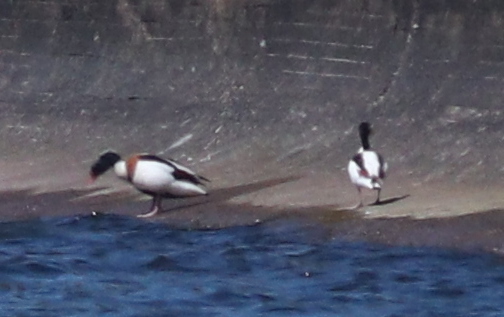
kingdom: Animalia
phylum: Chordata
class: Aves
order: Anseriformes
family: Anatidae
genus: Tadorna
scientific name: Tadorna tadorna
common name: Common shelduck
